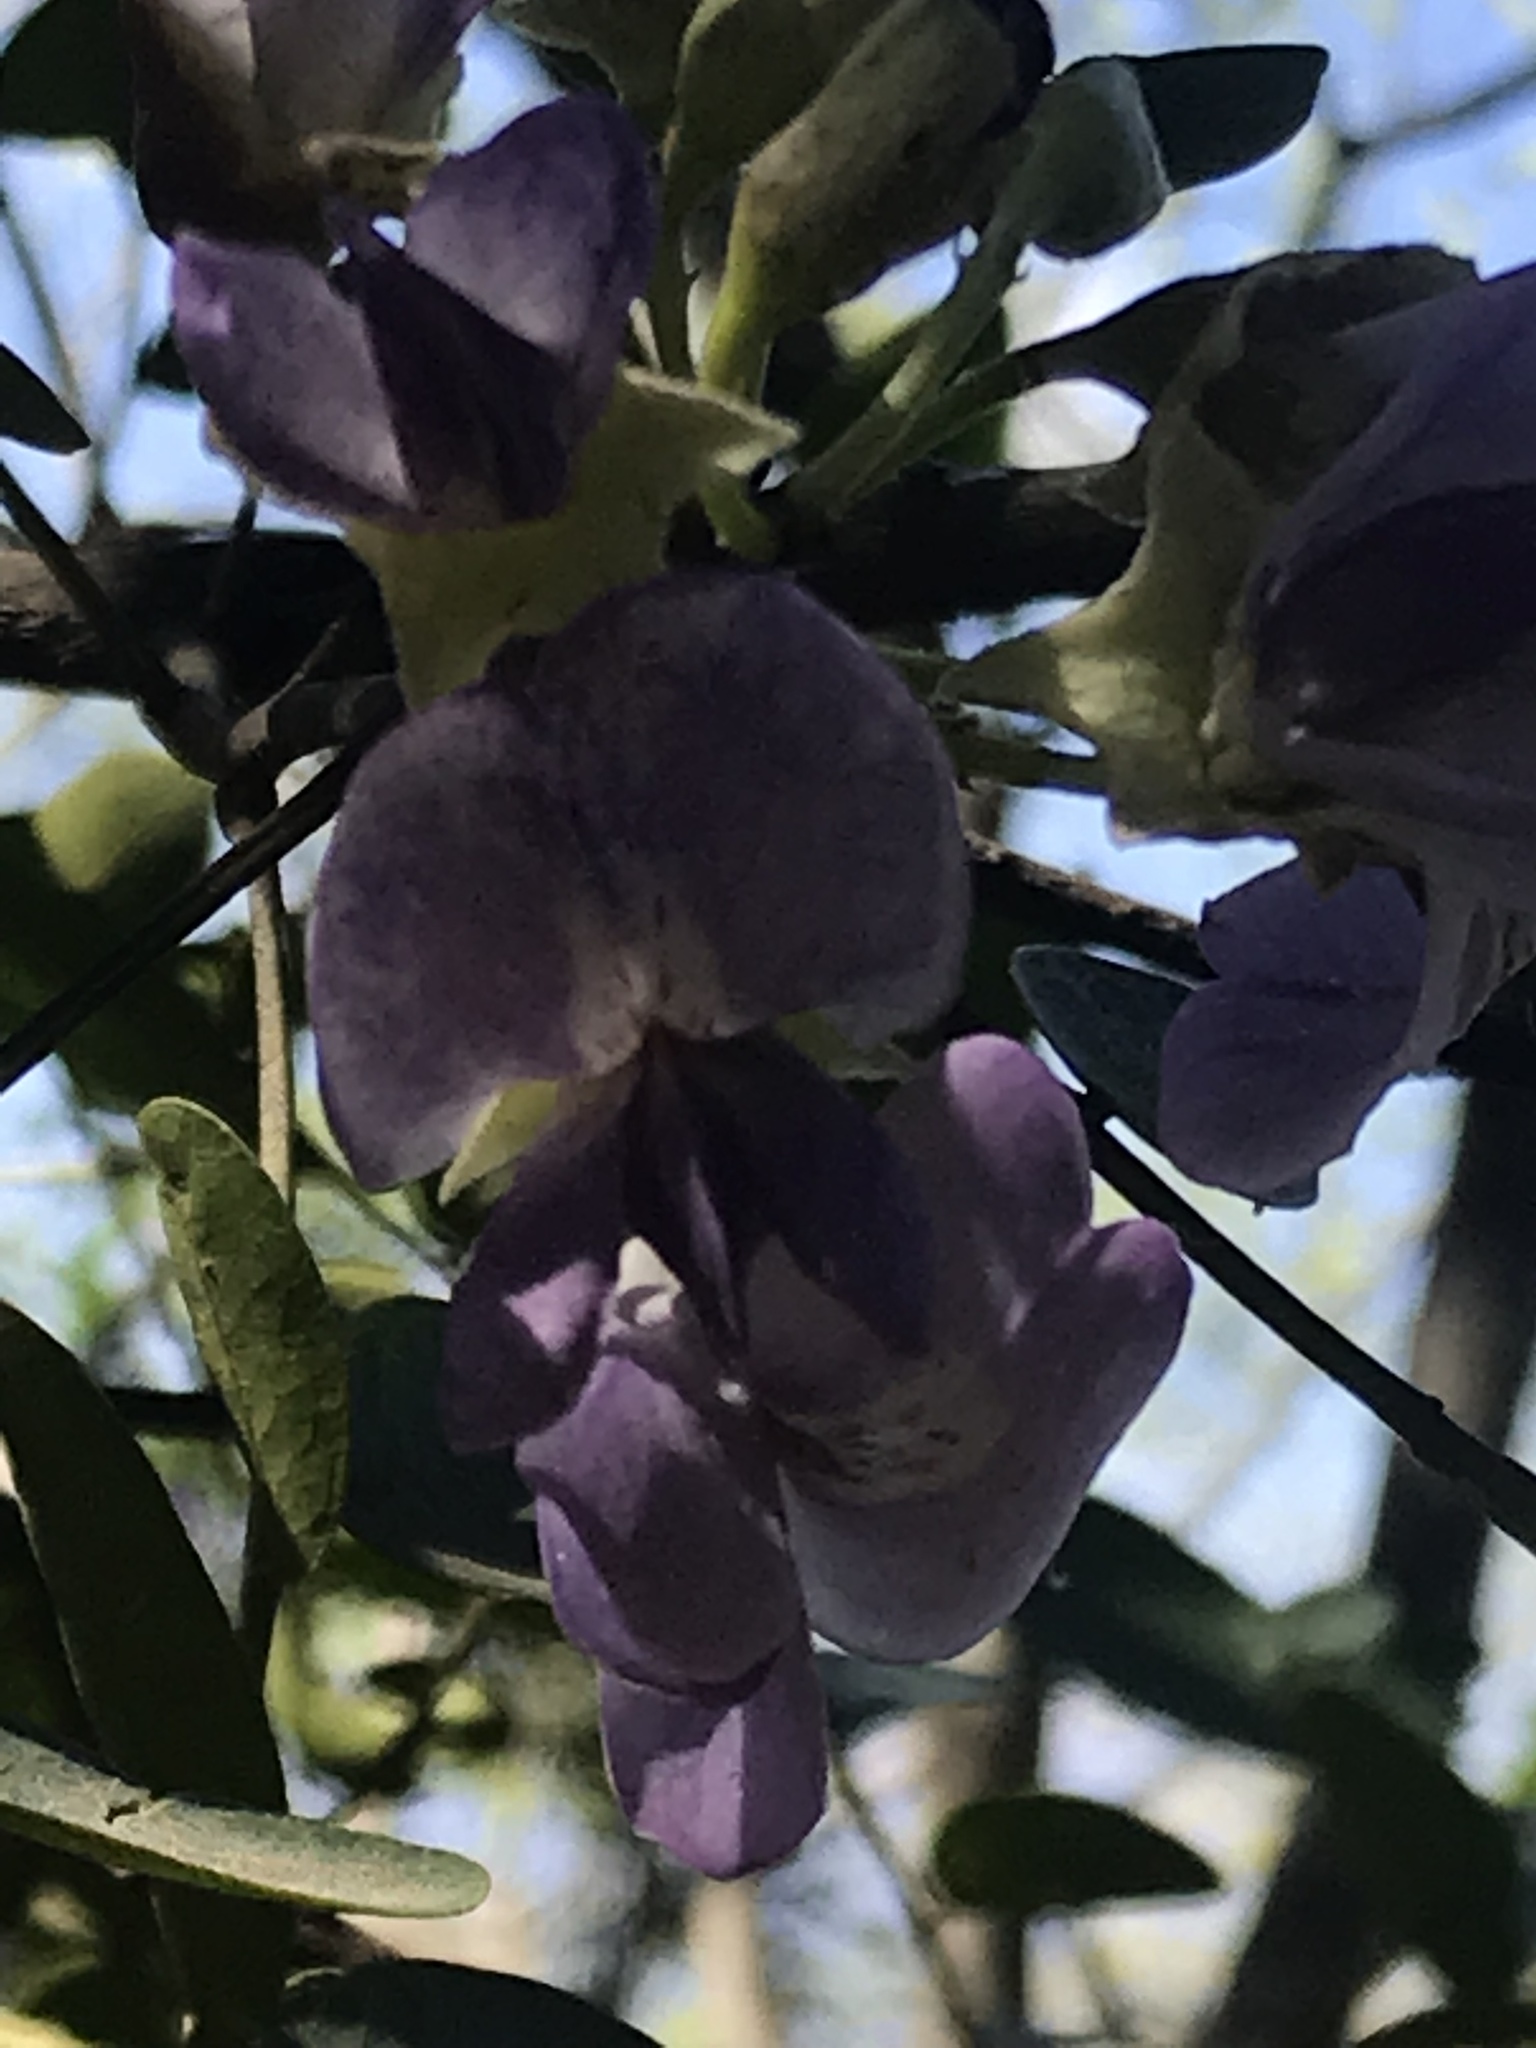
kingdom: Plantae
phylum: Tracheophyta
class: Magnoliopsida
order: Fabales
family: Fabaceae
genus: Dermatophyllum
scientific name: Dermatophyllum secundiflorum
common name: Texas-mountain-laurel
